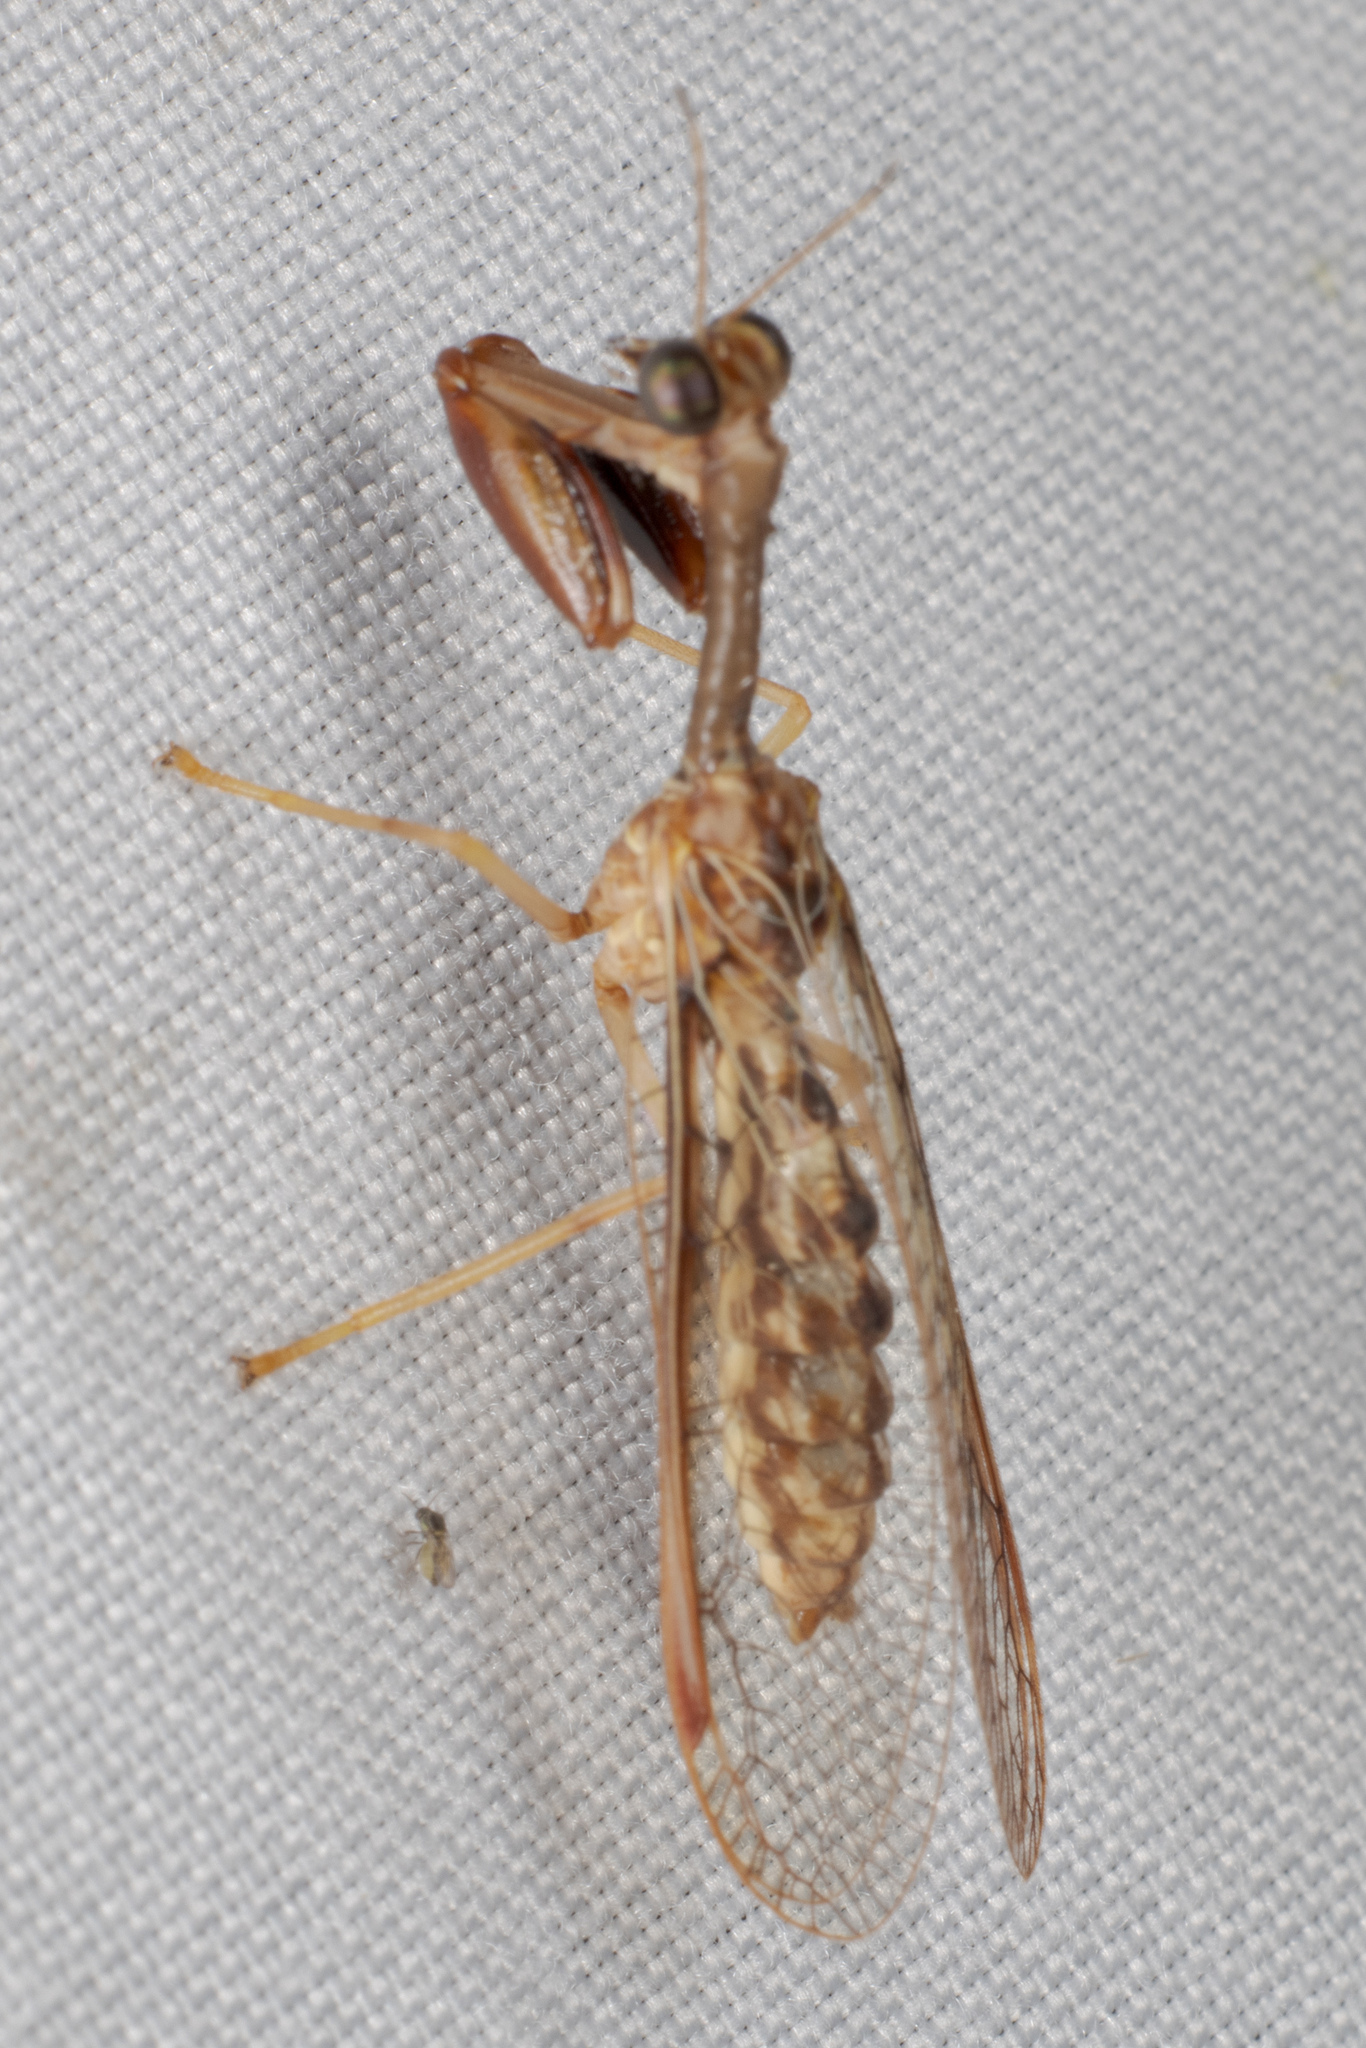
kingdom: Animalia
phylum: Arthropoda
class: Insecta
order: Neuroptera
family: Mantispidae
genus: Dicromantispa
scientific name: Dicromantispa sayi
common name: Say's mantidfly
